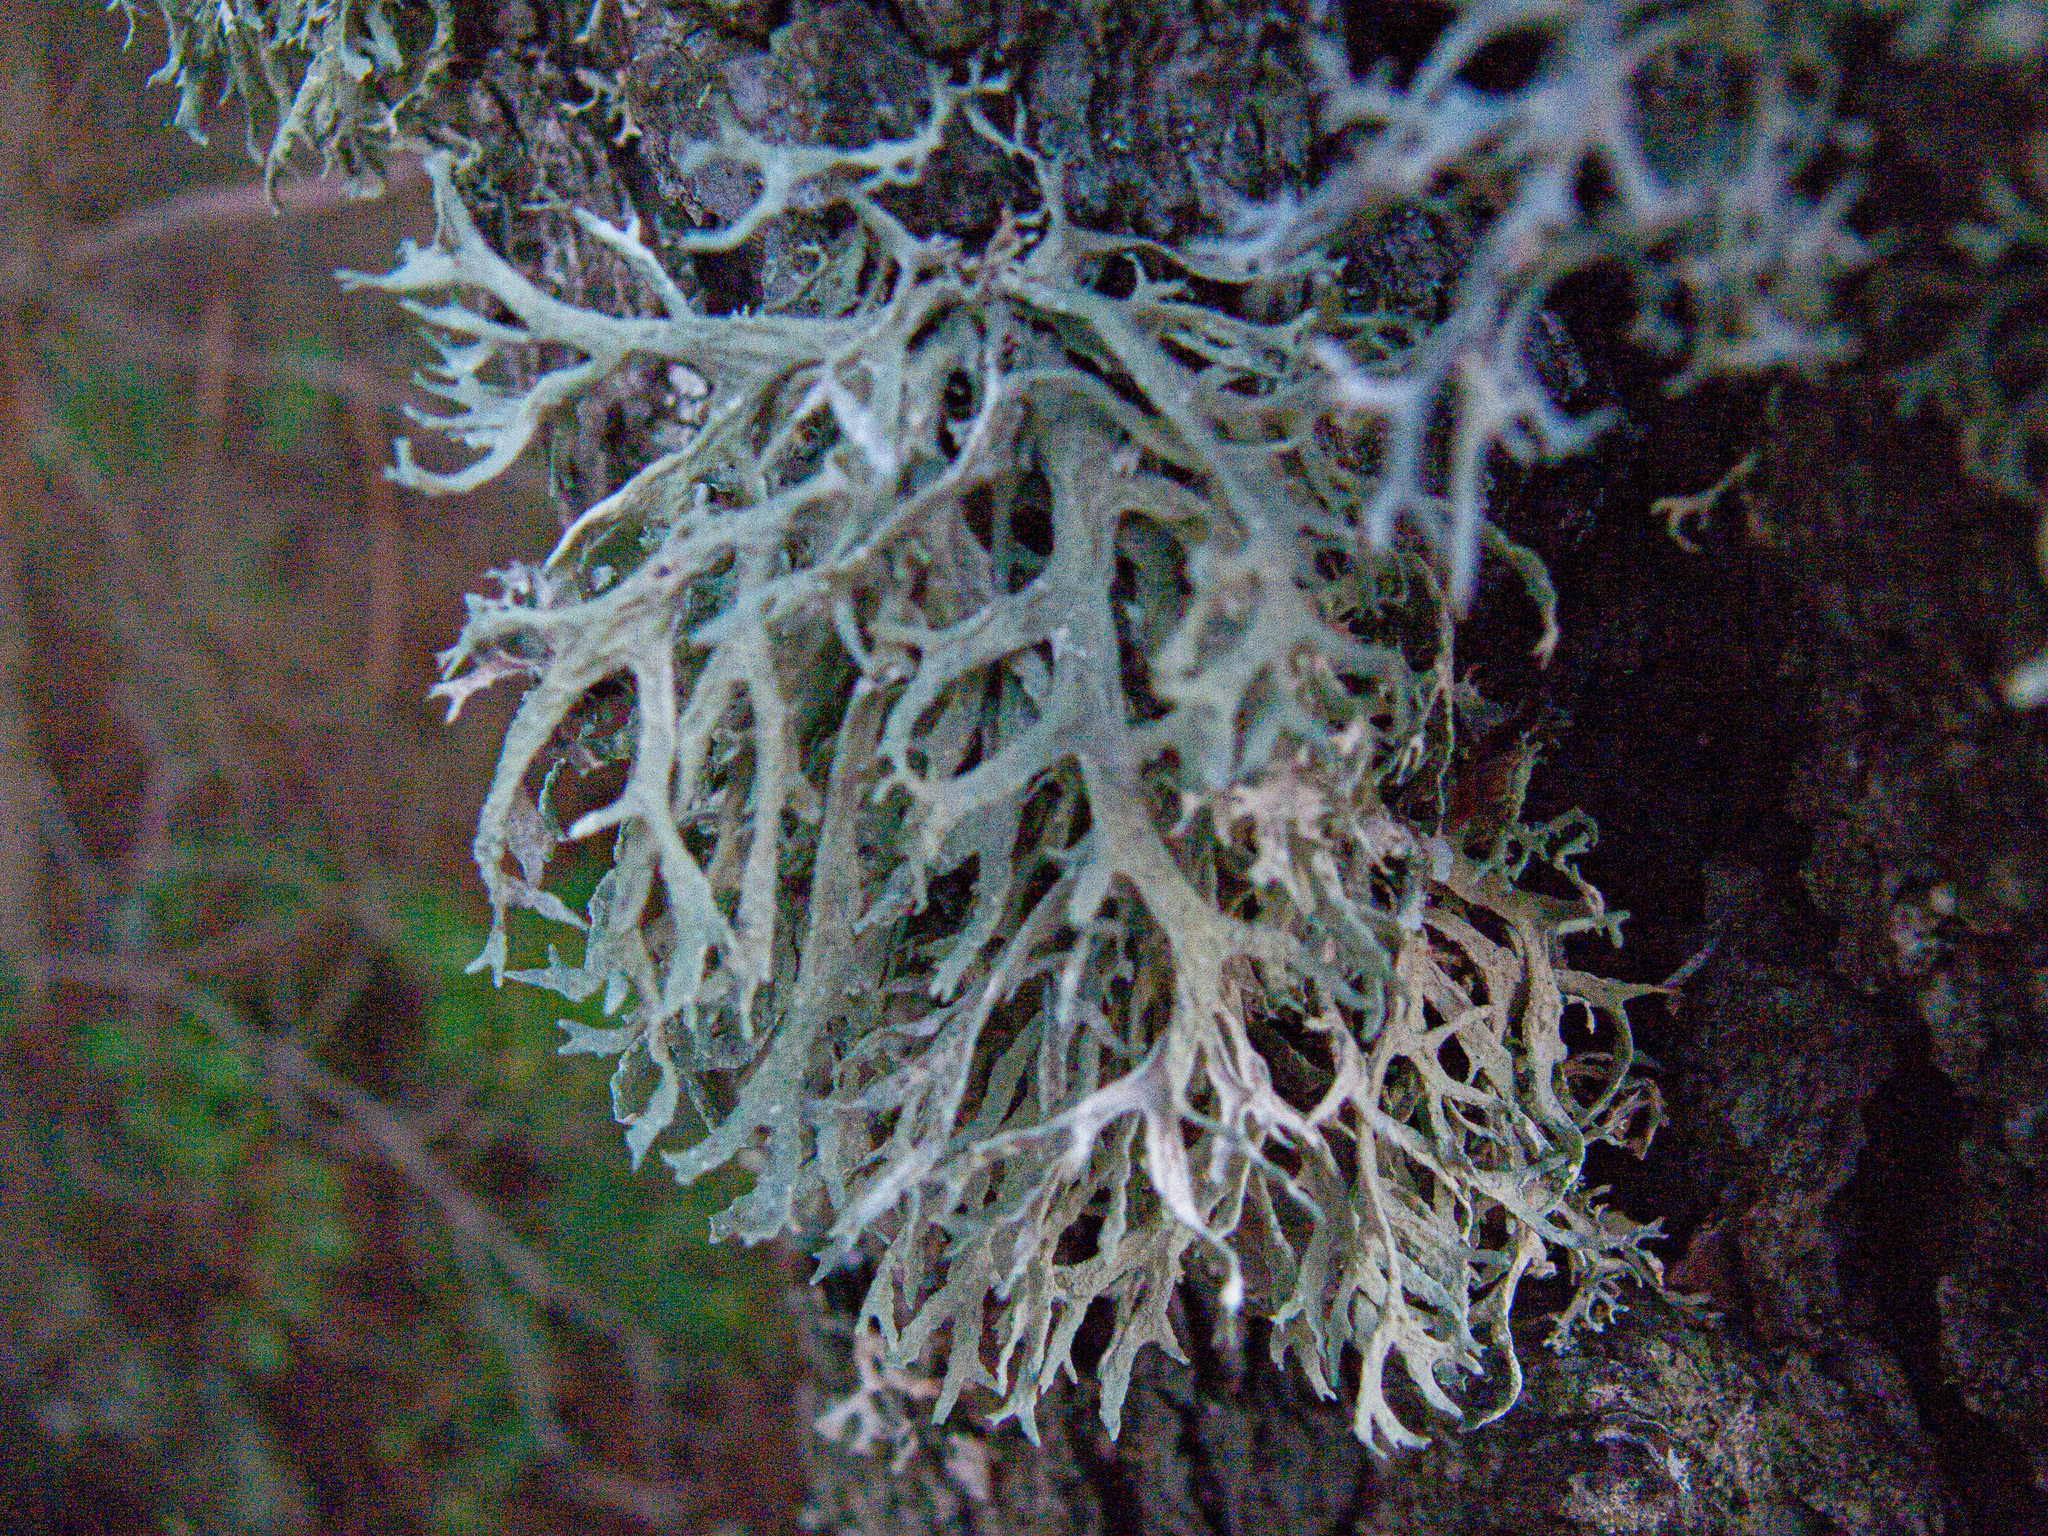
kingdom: Fungi
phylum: Ascomycota
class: Lecanoromycetes
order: Lecanorales
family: Parmeliaceae
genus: Evernia
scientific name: Evernia prunastri
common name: Oak moss
